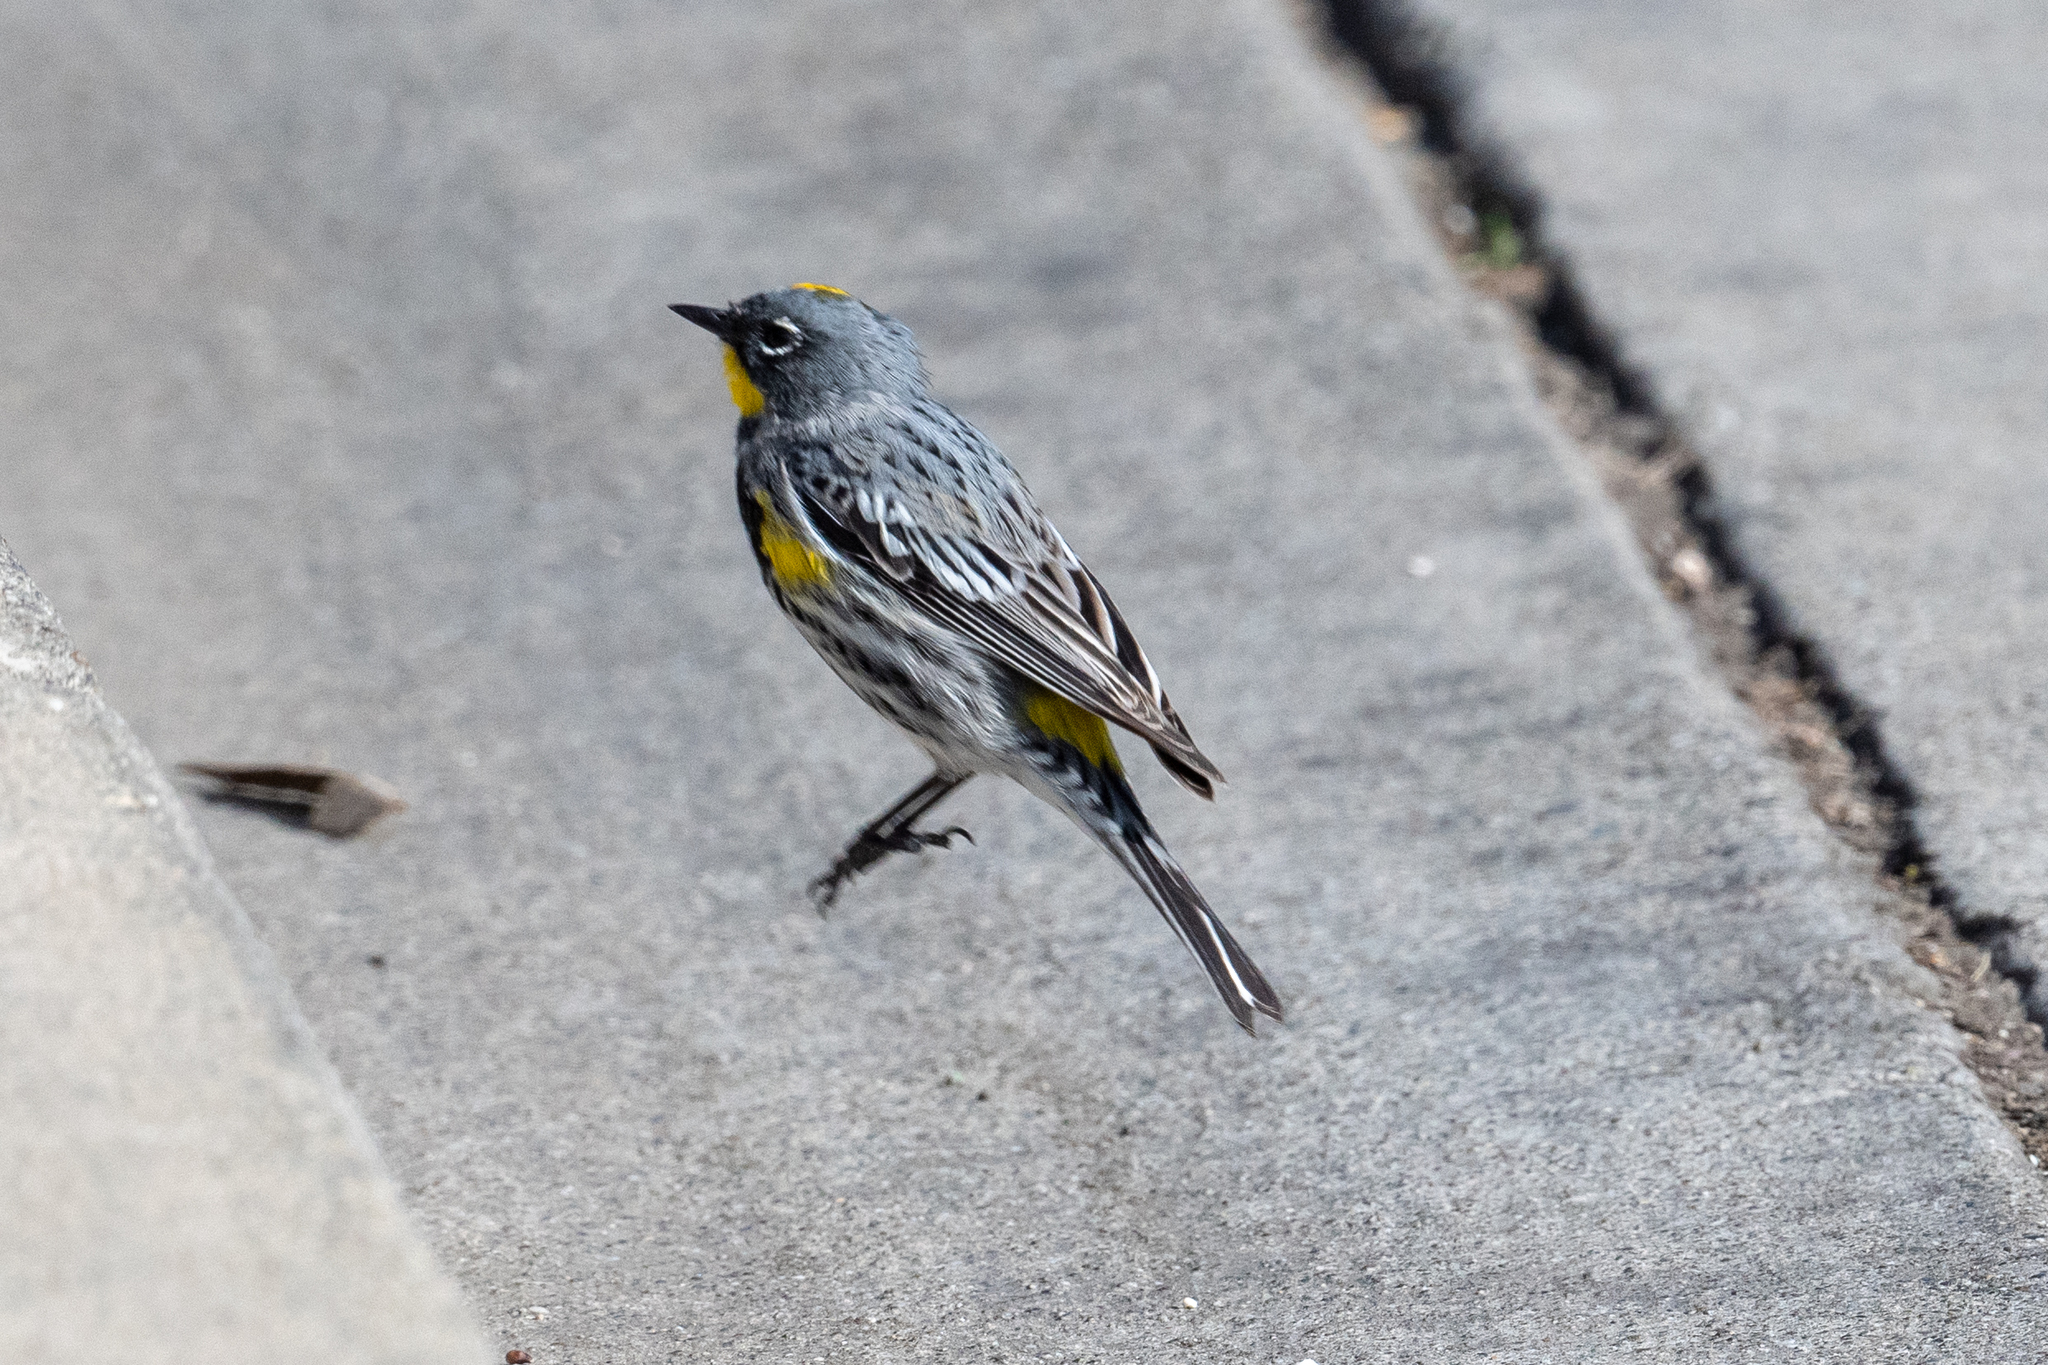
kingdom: Animalia
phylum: Chordata
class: Aves
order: Passeriformes
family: Parulidae
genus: Setophaga
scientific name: Setophaga coronata
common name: Myrtle warbler
